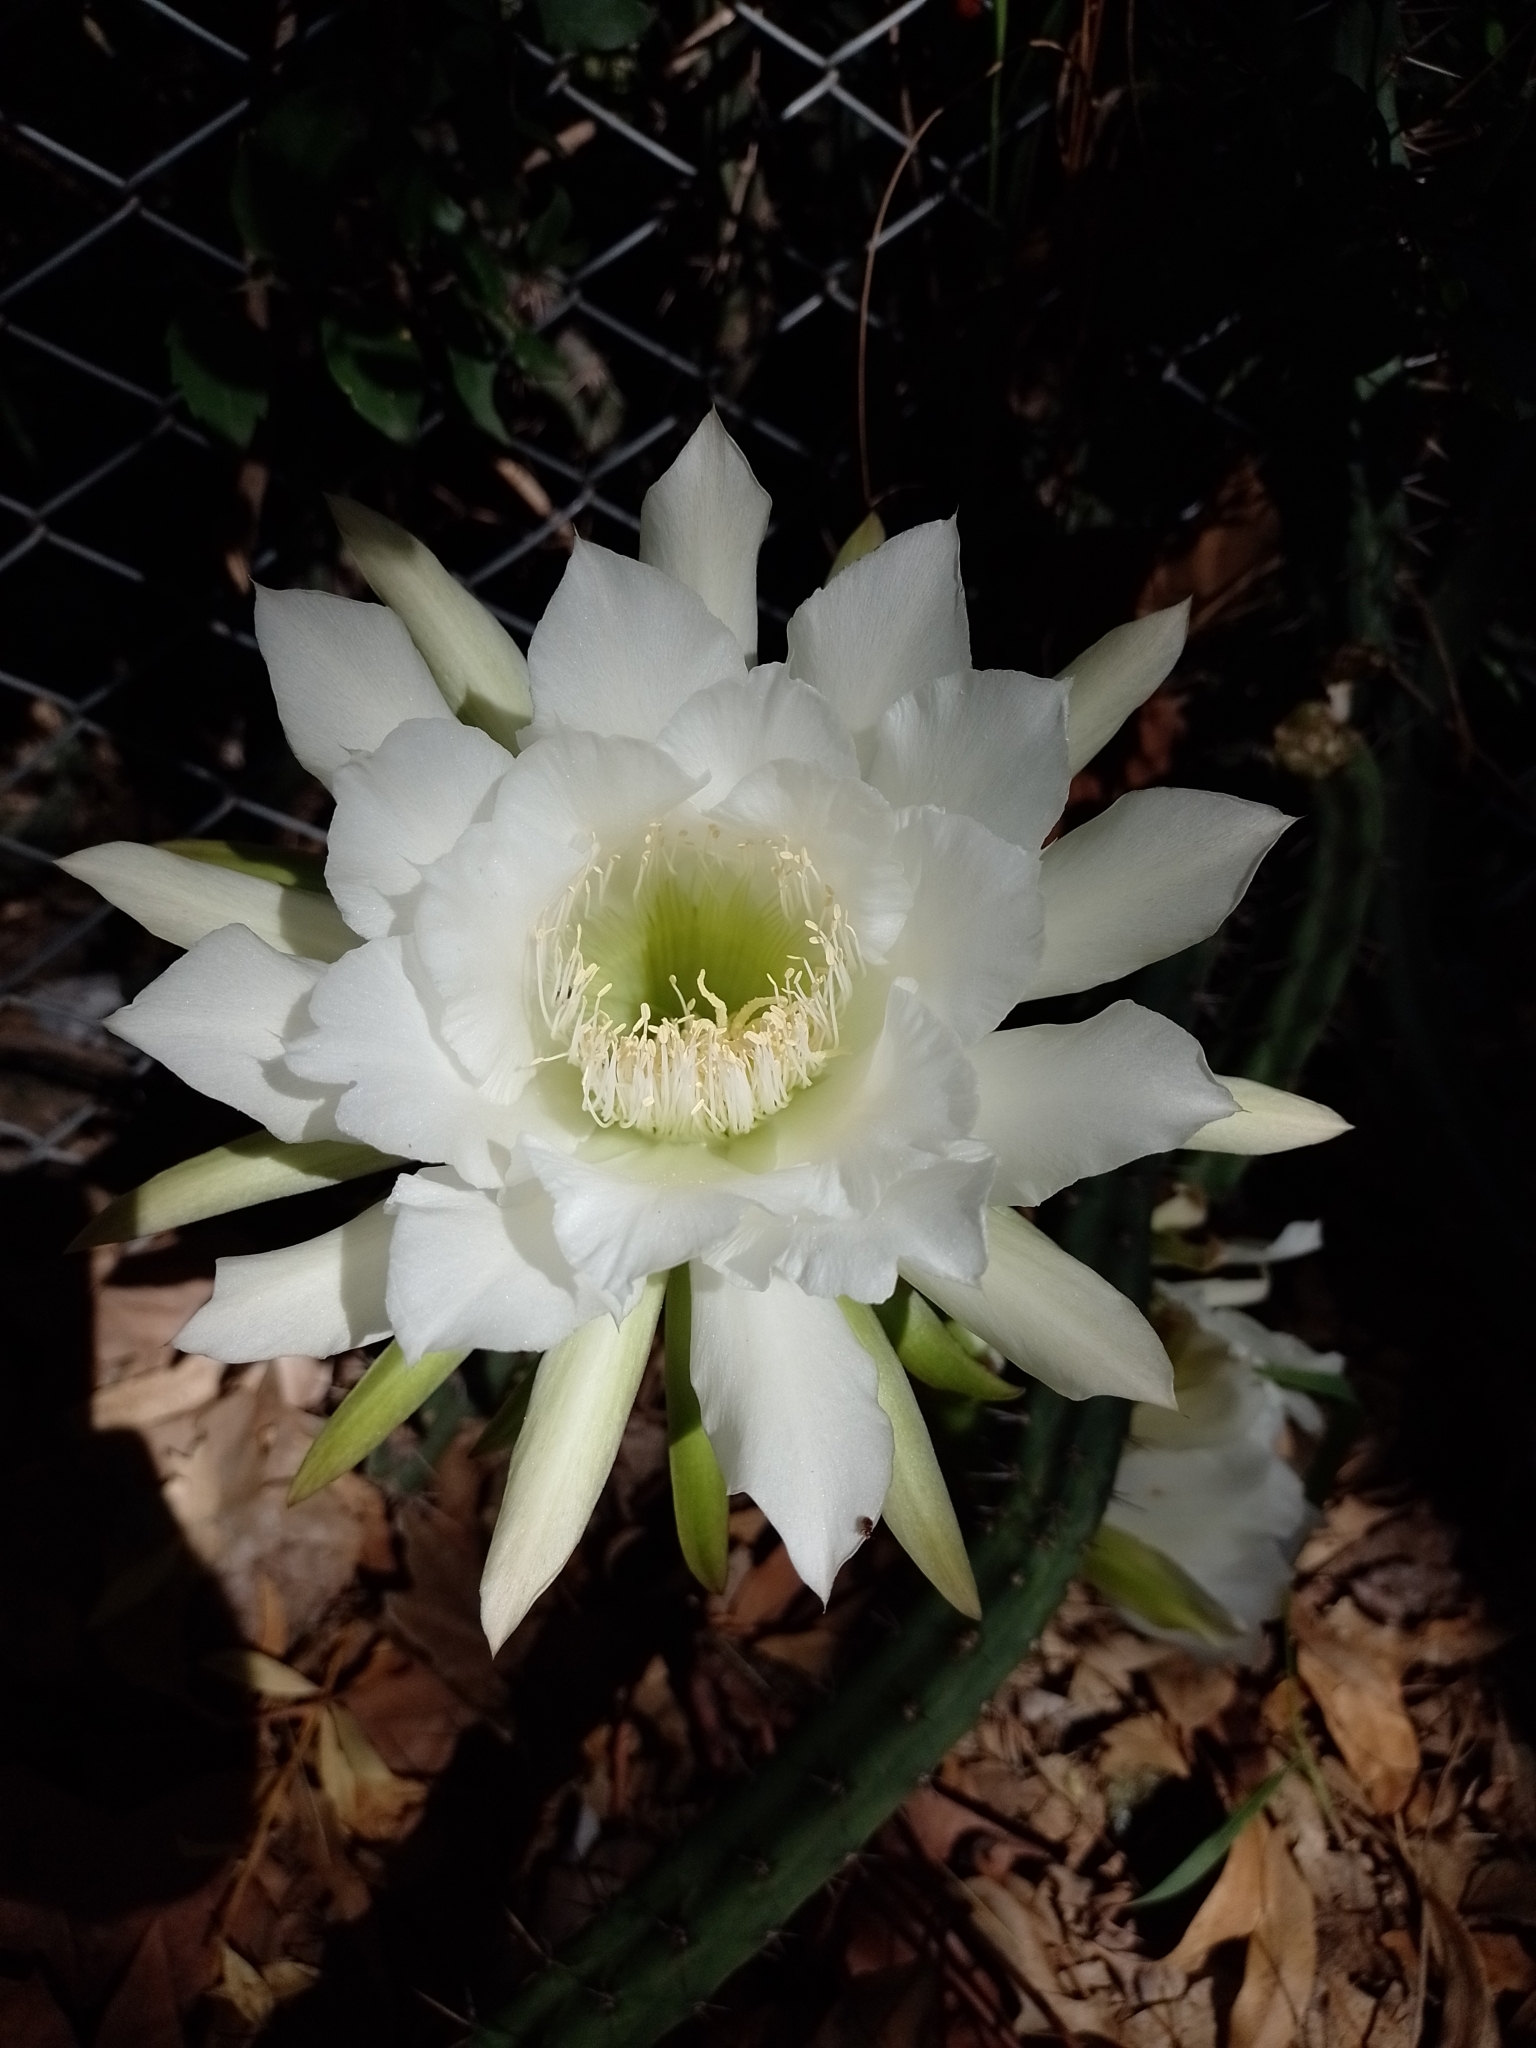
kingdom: Plantae
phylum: Tracheophyta
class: Magnoliopsida
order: Caryophyllales
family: Cactaceae
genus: Harrisia
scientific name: Harrisia pomanensis
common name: Midnight-lady
